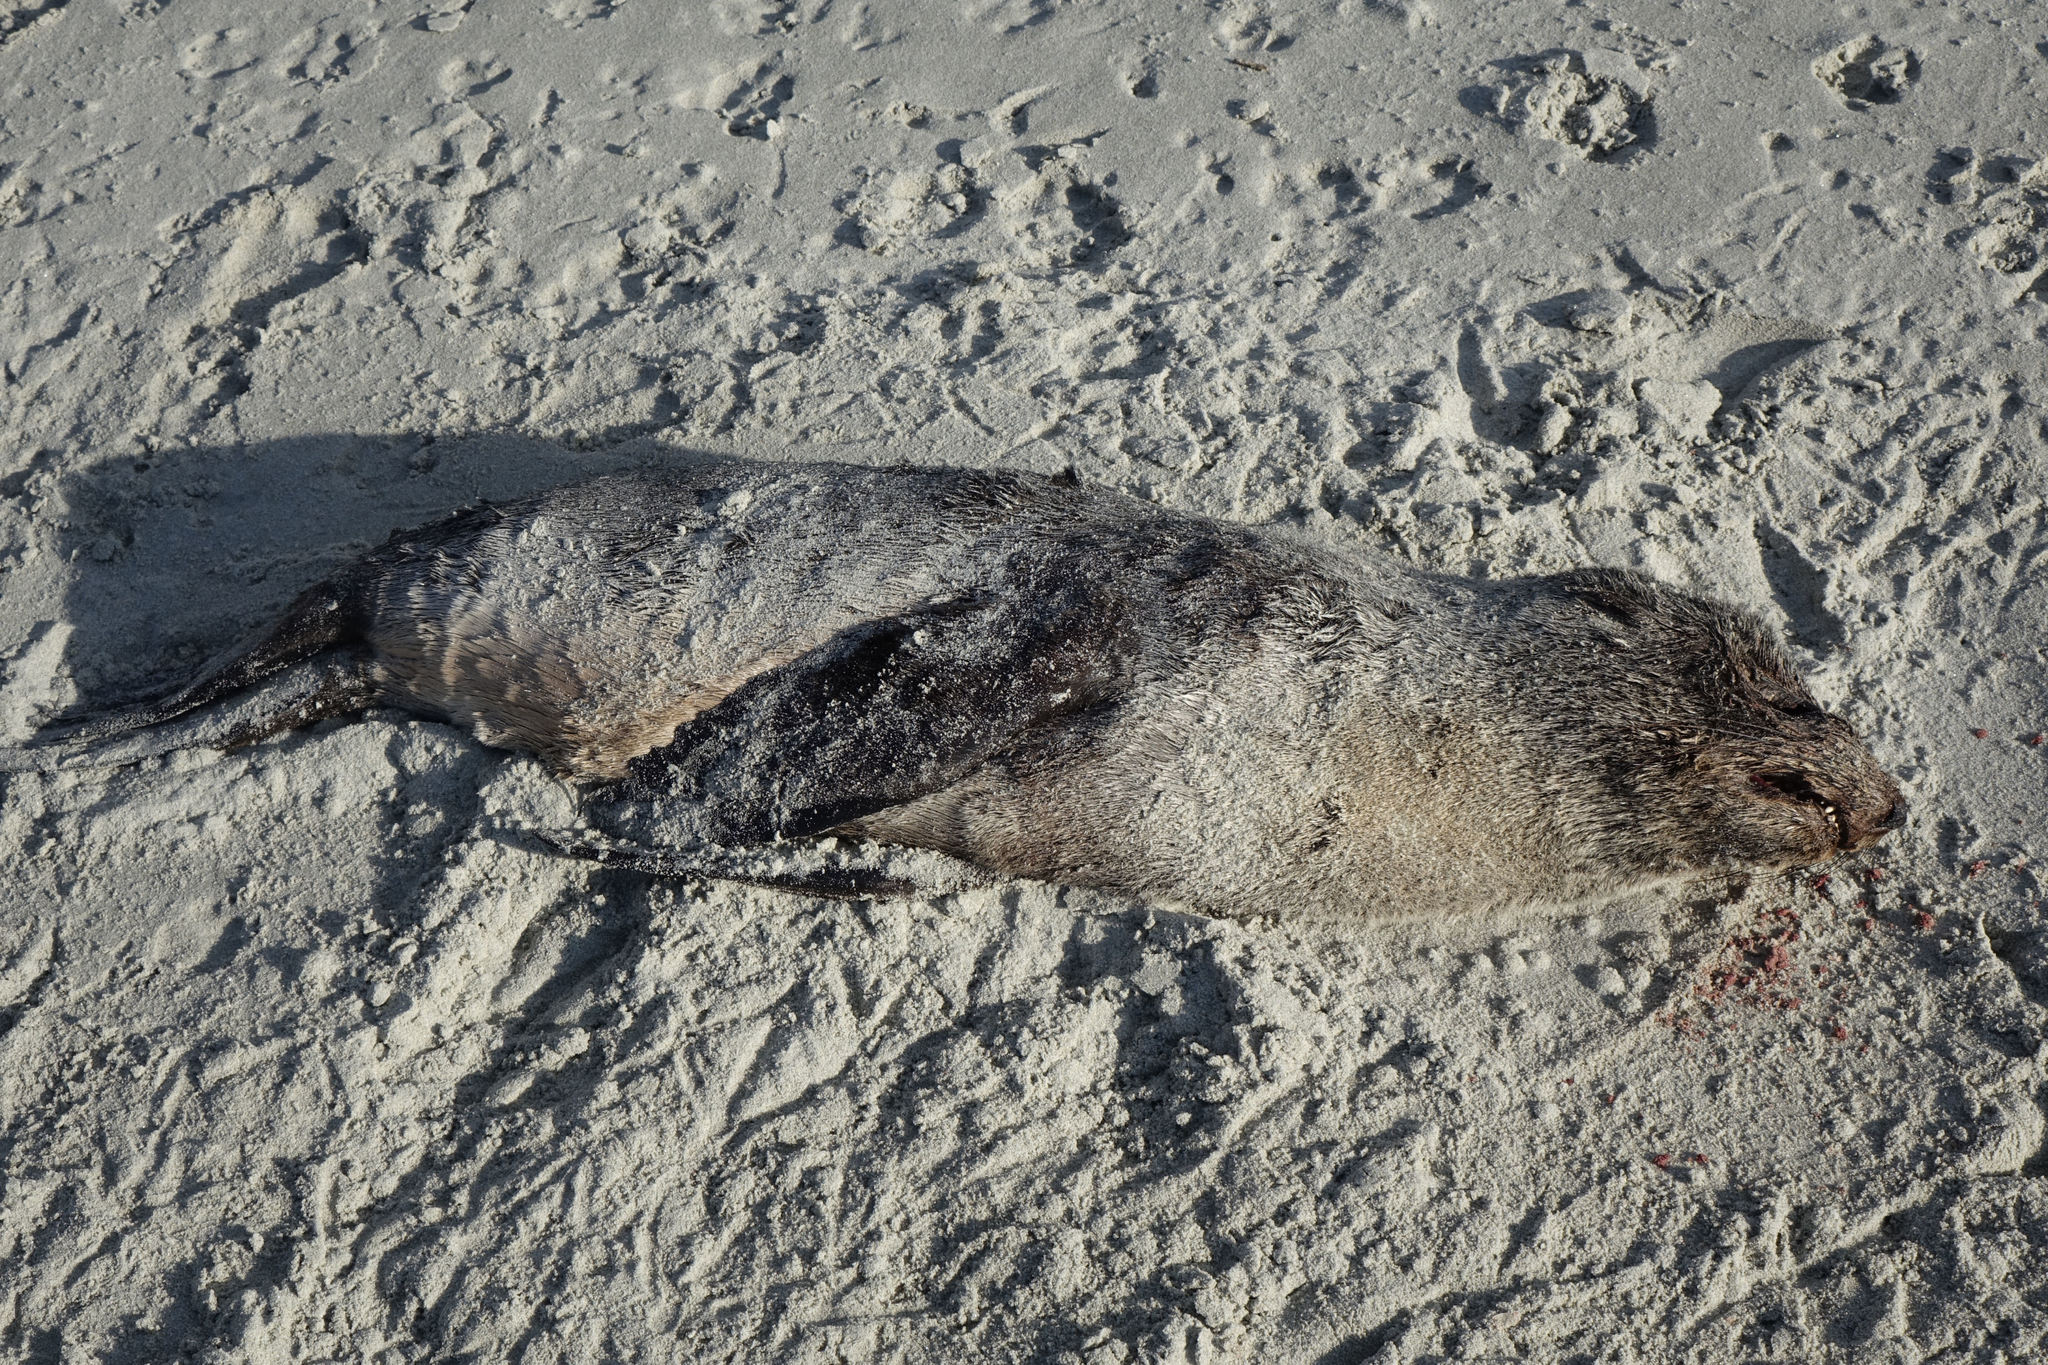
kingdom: Animalia
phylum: Chordata
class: Mammalia
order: Carnivora
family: Otariidae
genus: Arctocephalus
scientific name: Arctocephalus forsteri
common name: New zealand fur seal
